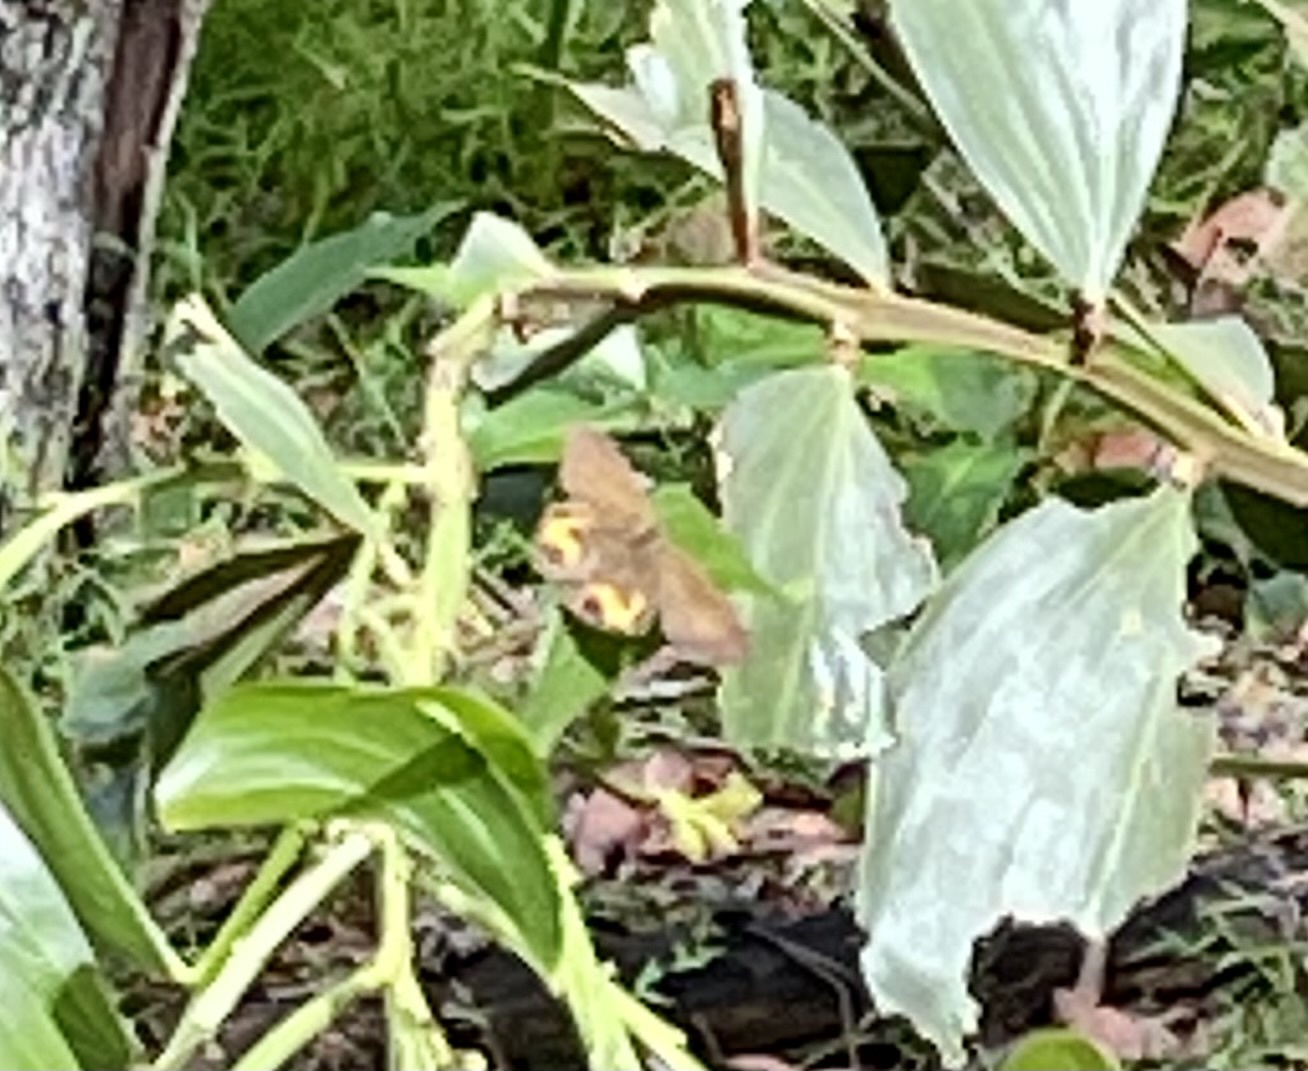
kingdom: Animalia
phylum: Arthropoda
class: Insecta
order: Lepidoptera
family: Nymphalidae
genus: Hypocysta
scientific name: Hypocysta metirius
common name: Brown ringlet
